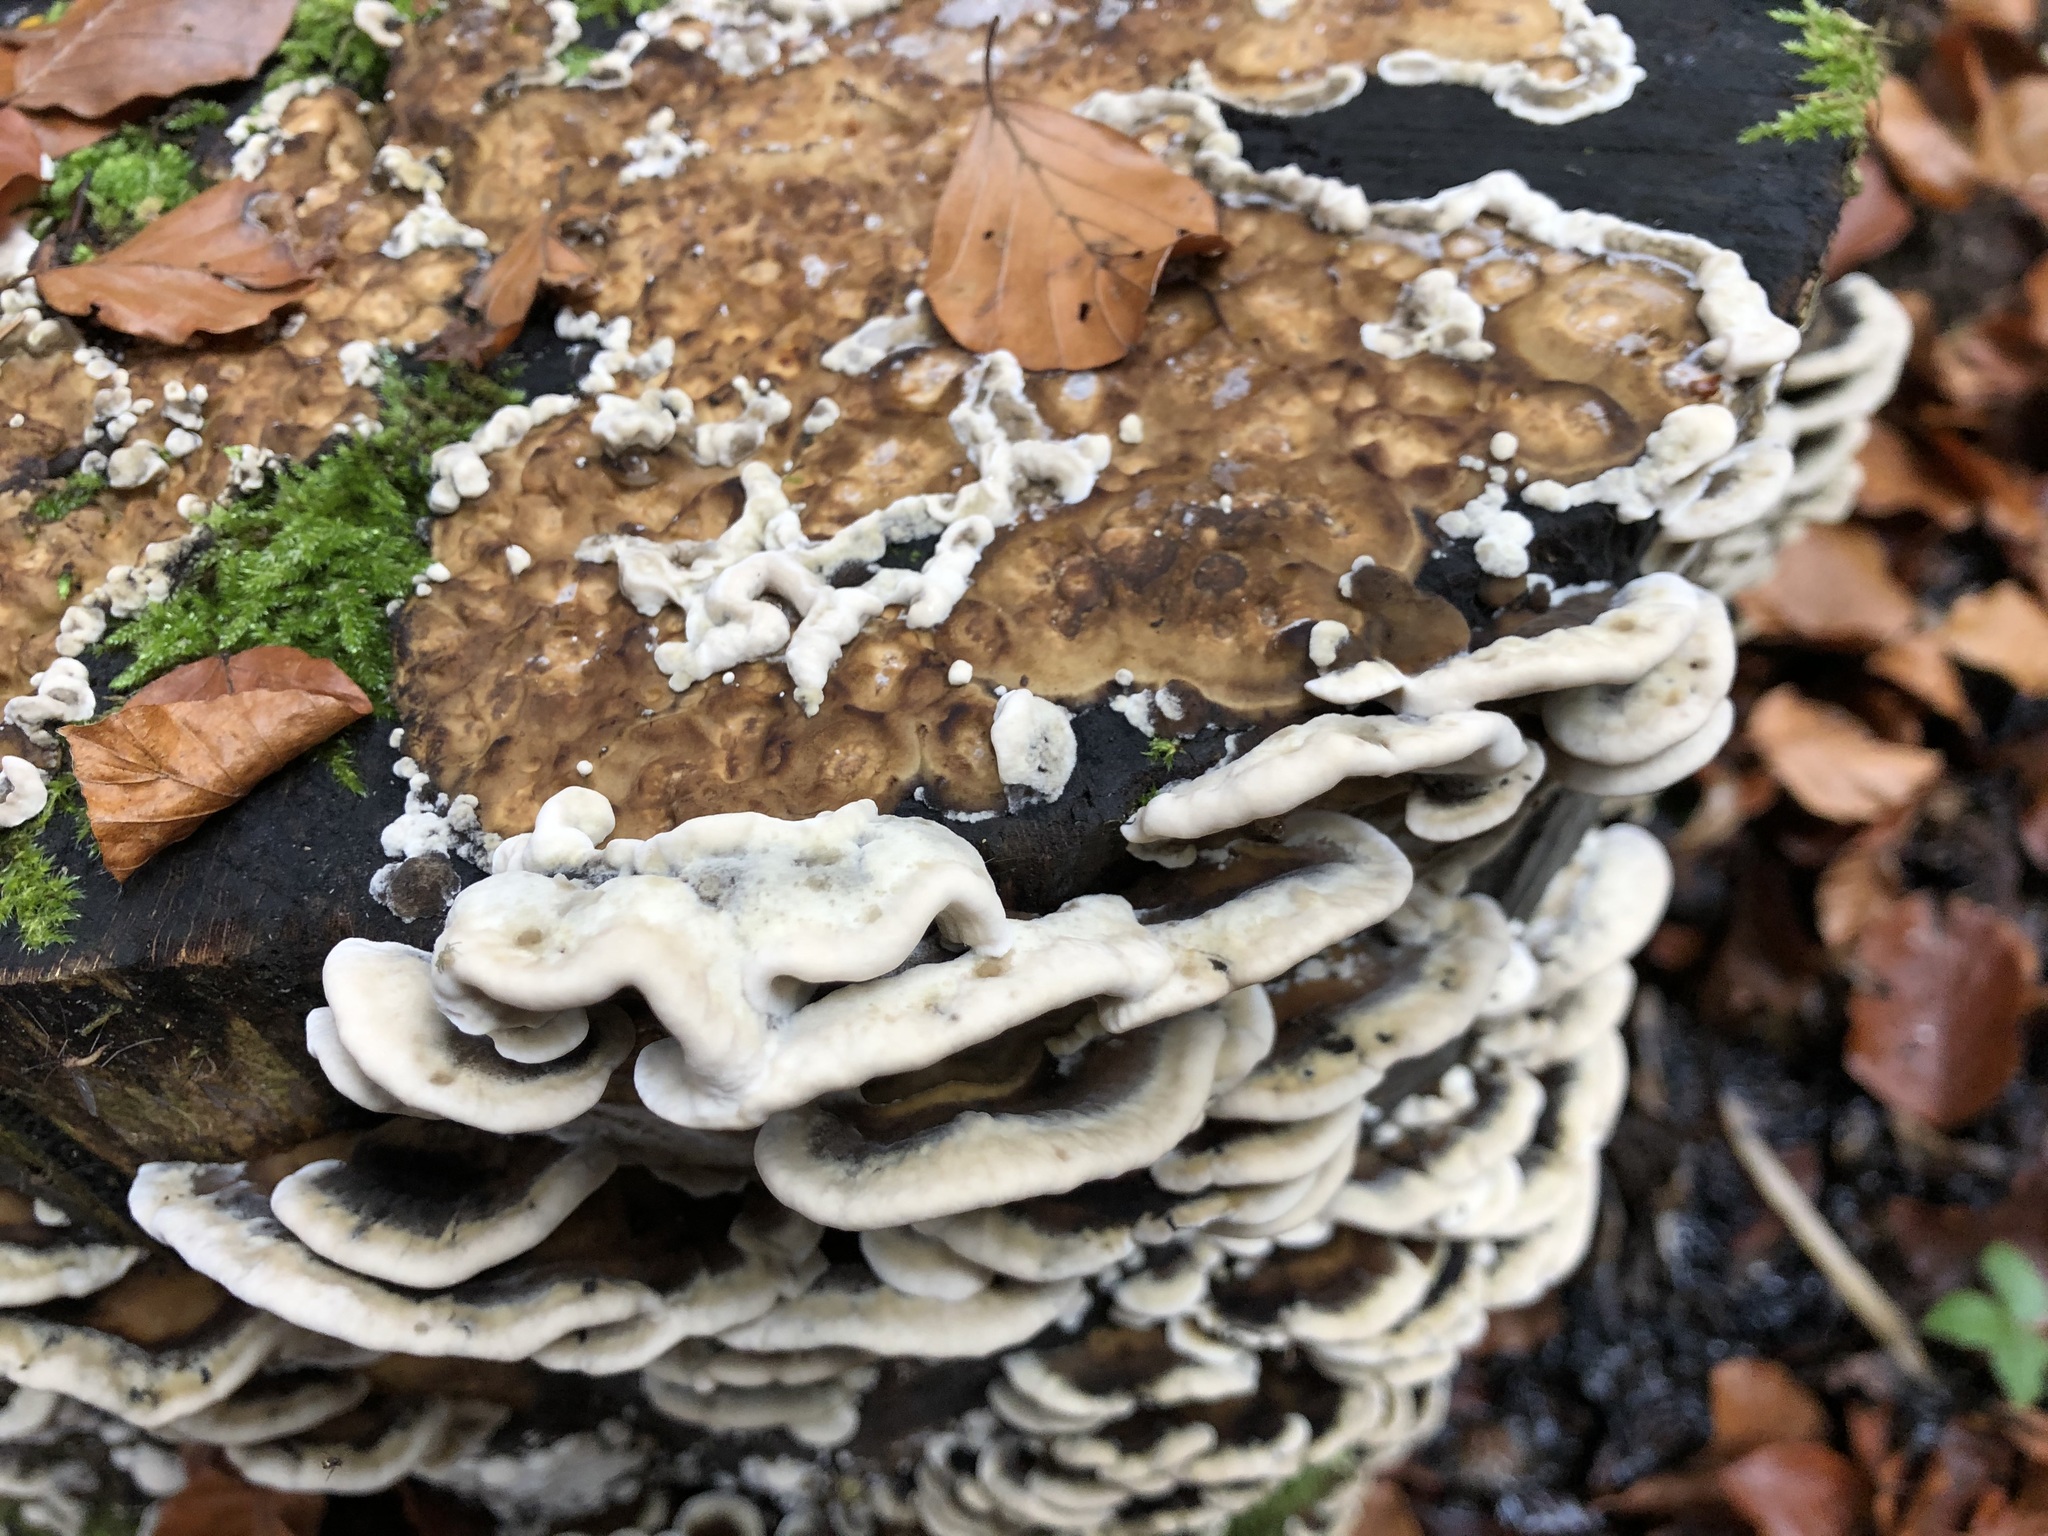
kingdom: Fungi
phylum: Basidiomycota
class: Agaricomycetes
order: Polyporales
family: Phanerochaetaceae
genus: Bjerkandera
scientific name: Bjerkandera adusta
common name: Smoky bracket
